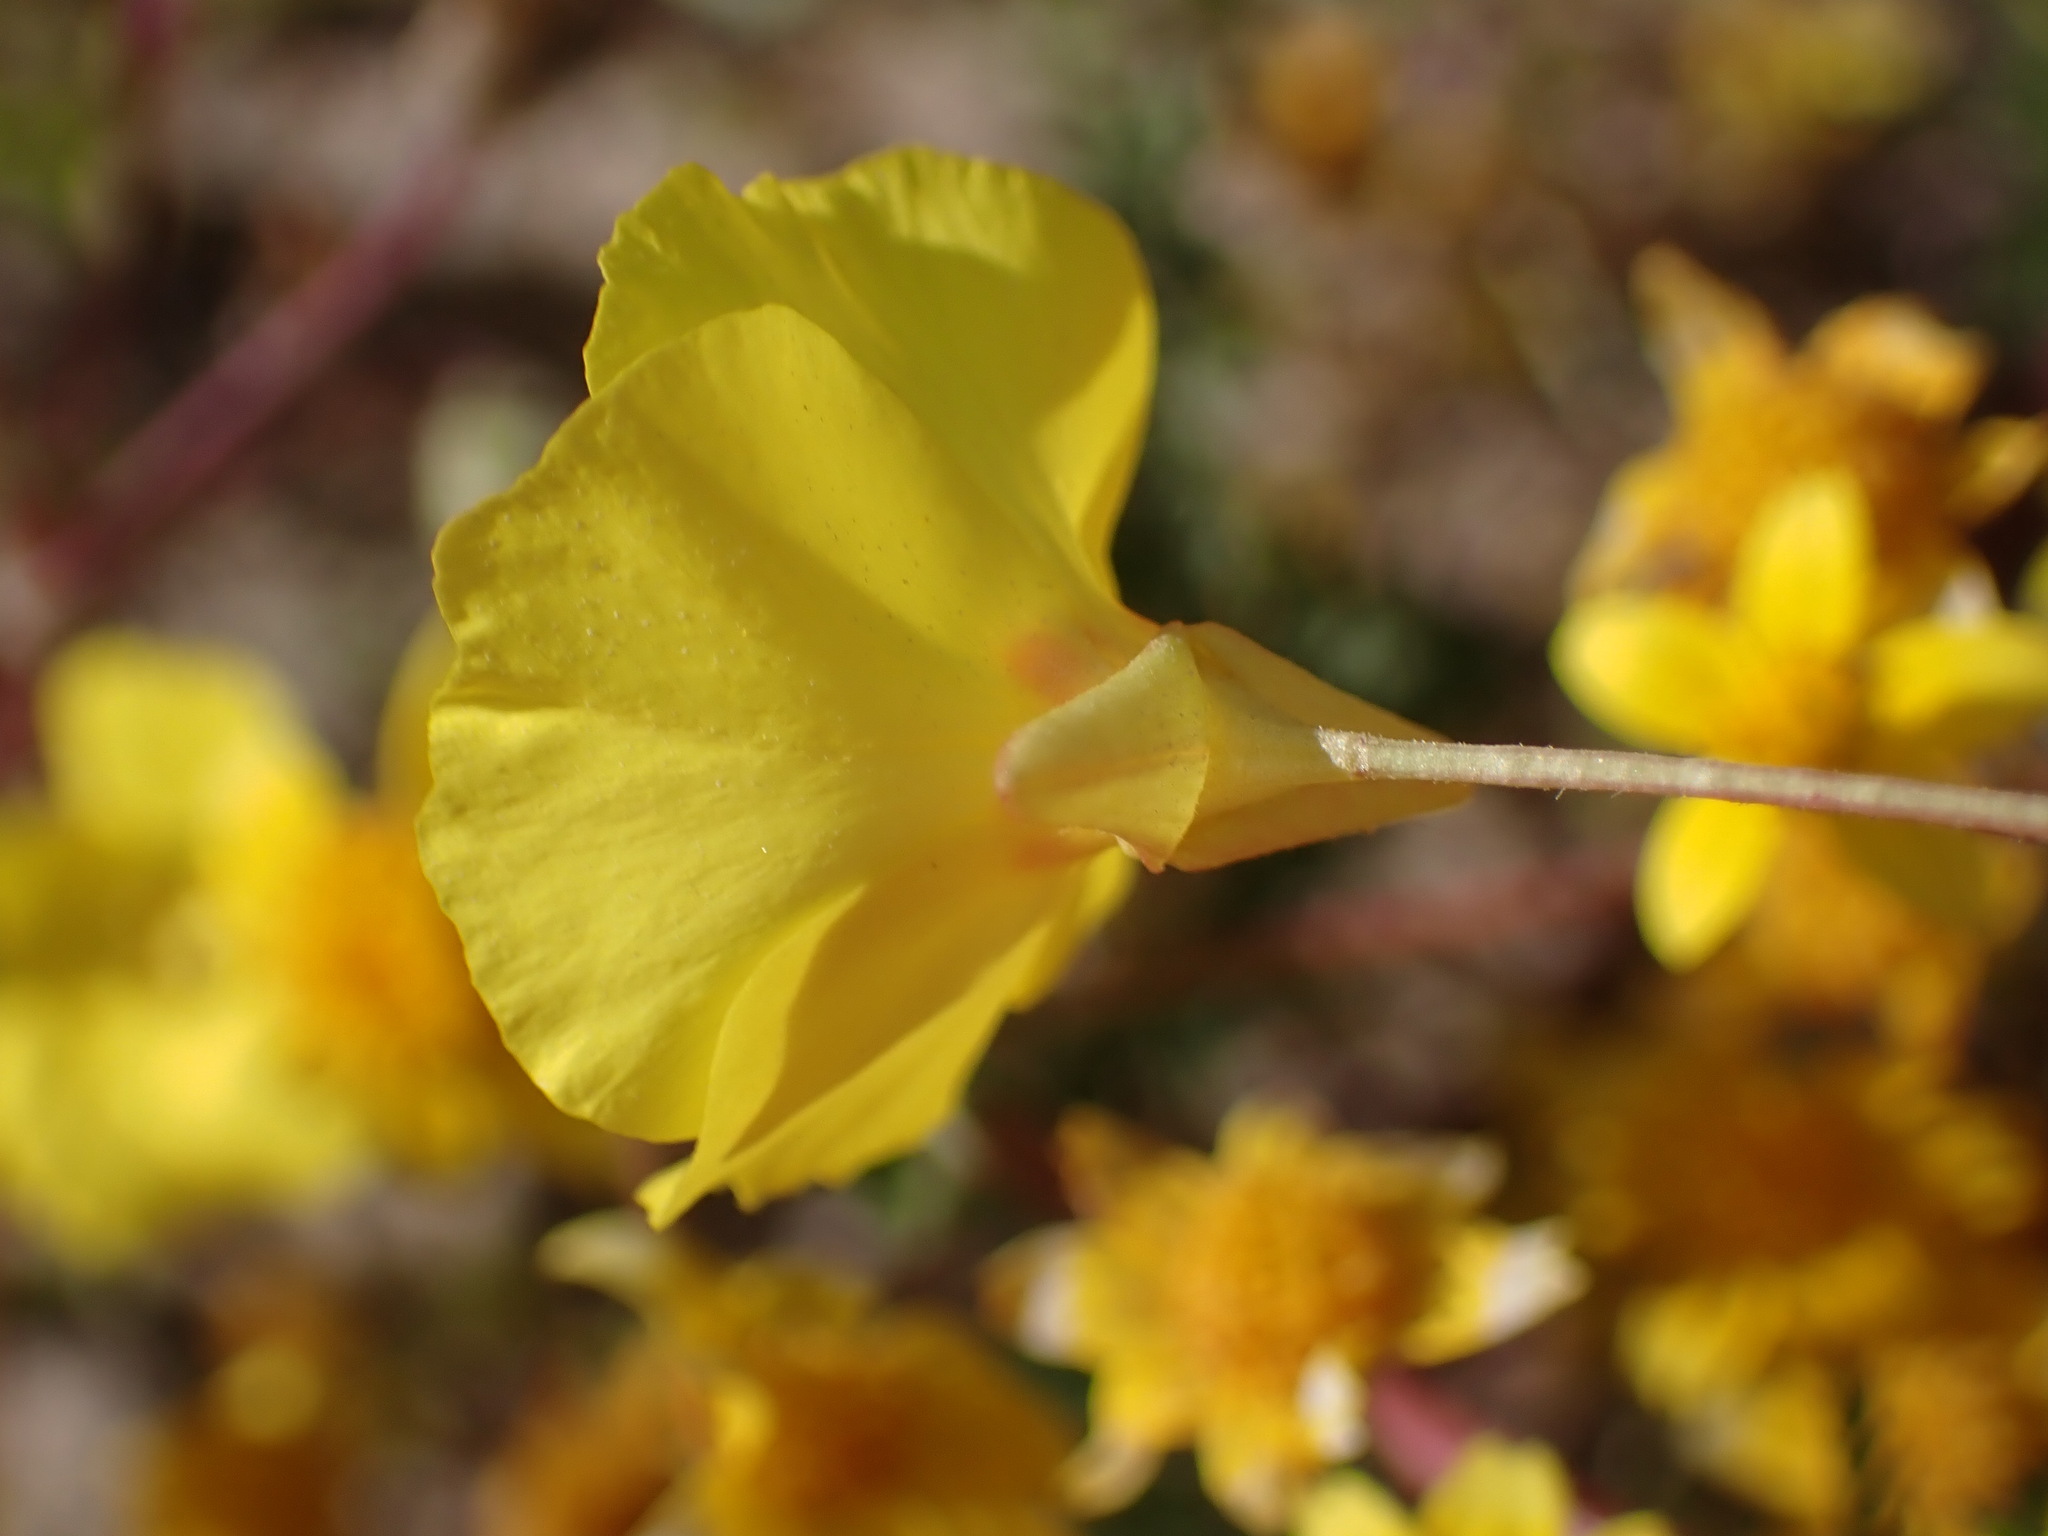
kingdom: Plantae
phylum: Tracheophyta
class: Magnoliopsida
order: Myrtales
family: Onagraceae
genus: Camissonia
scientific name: Camissonia campestris
